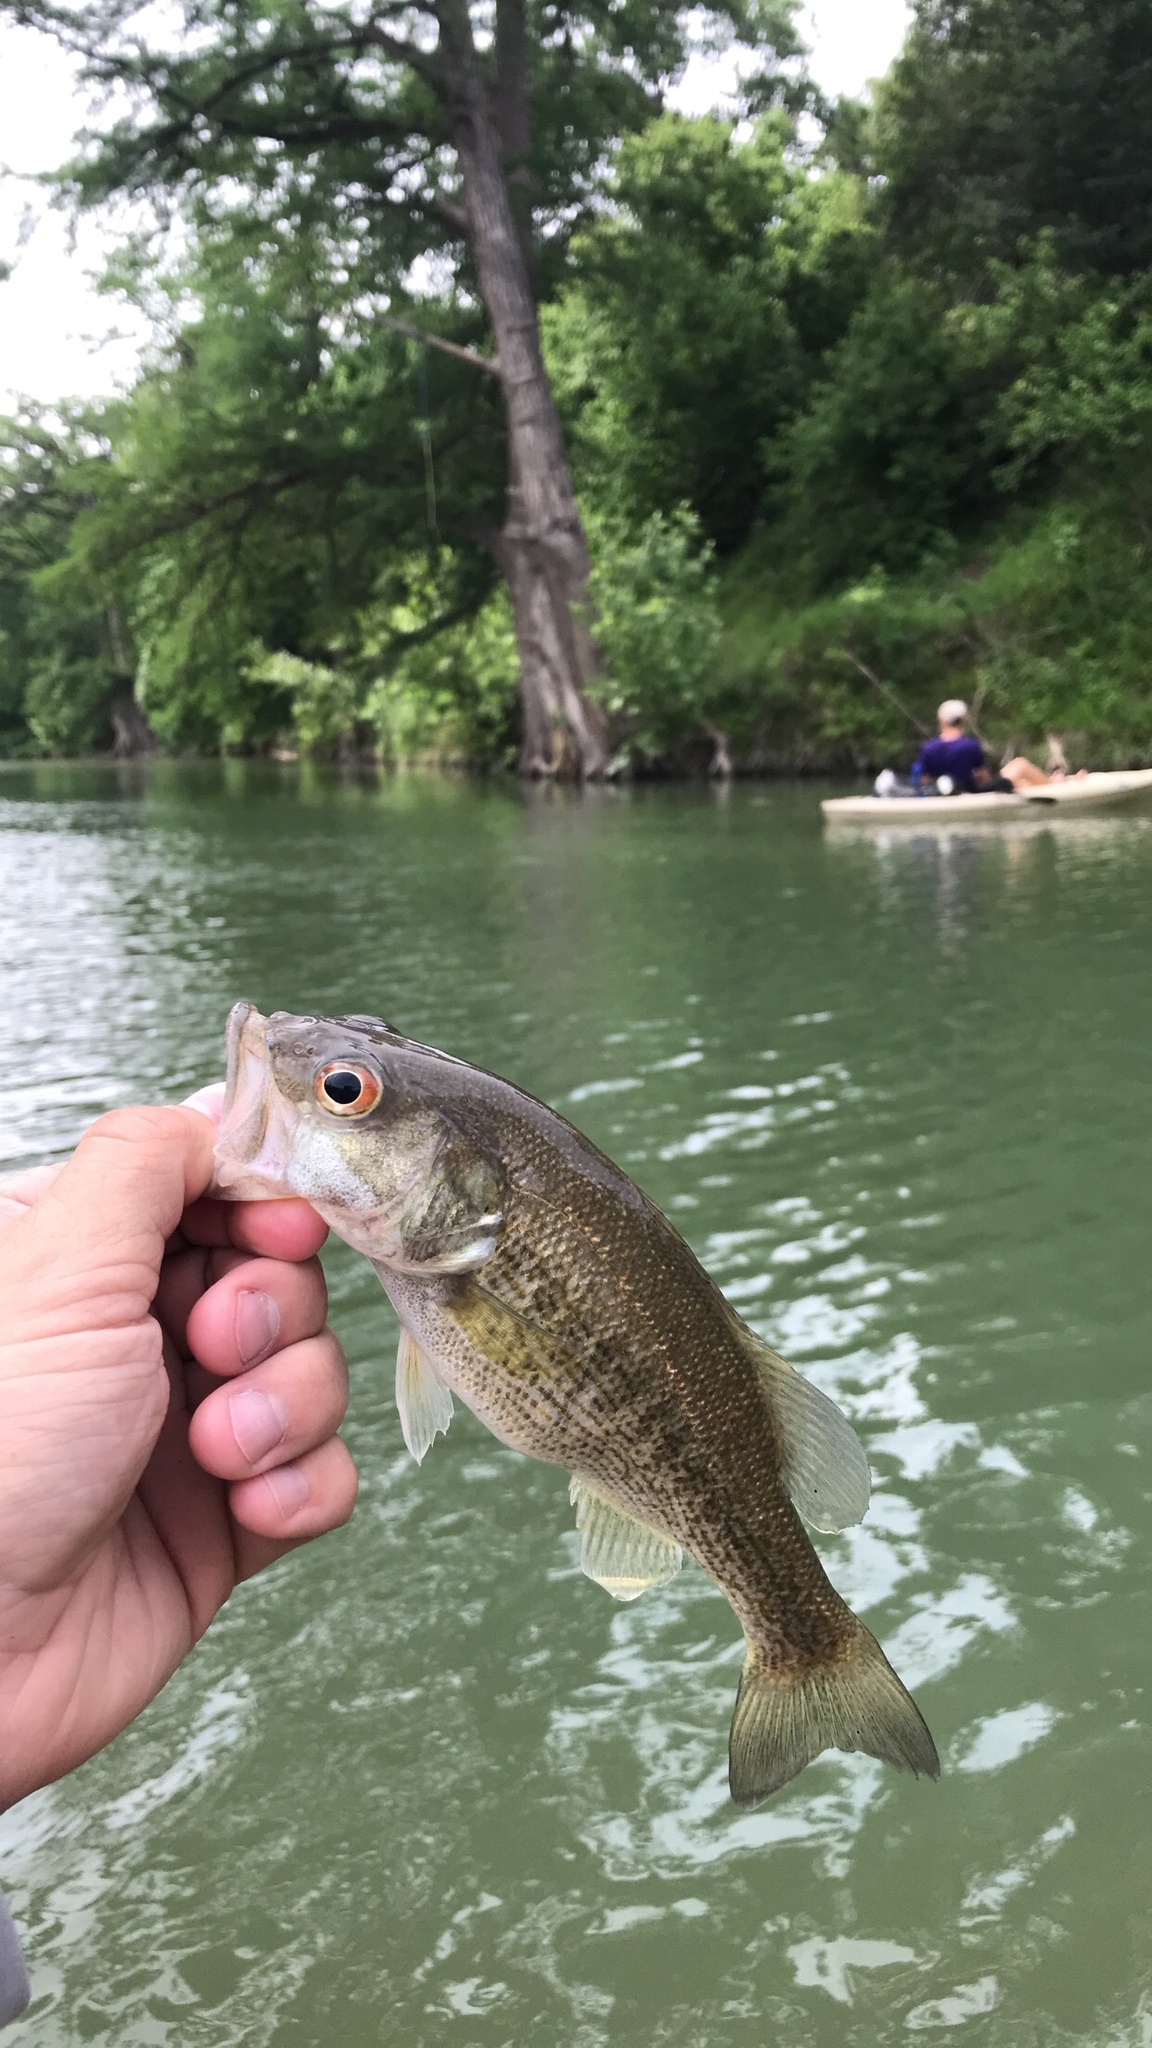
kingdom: Animalia
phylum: Chordata
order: Perciformes
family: Centrarchidae
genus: Micropterus
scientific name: Micropterus treculii
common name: Guadalupe bass
